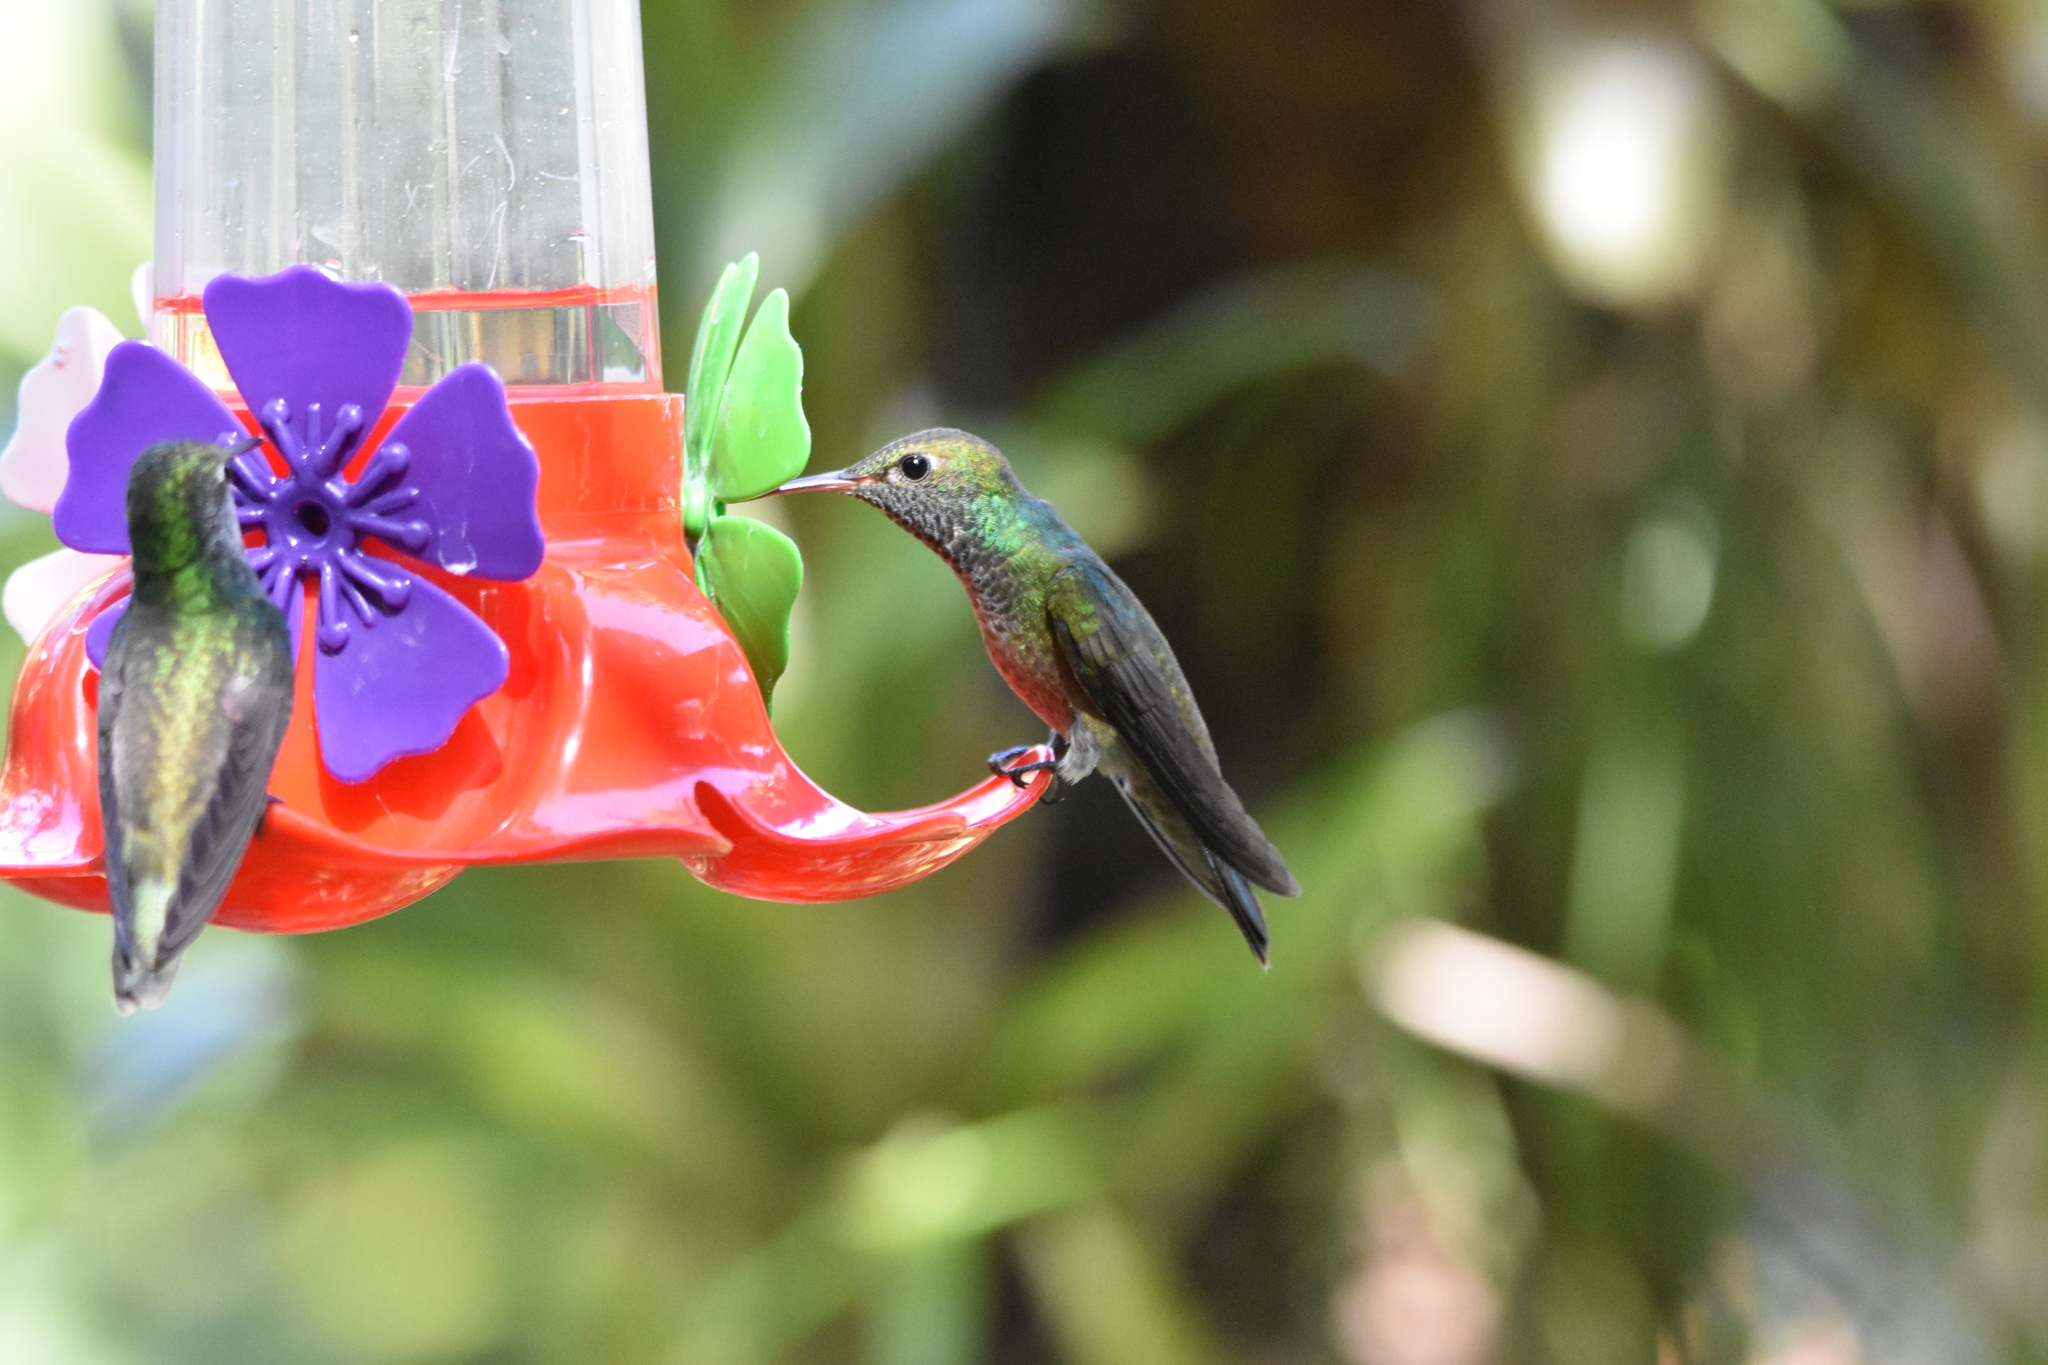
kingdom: Animalia
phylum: Chordata
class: Aves
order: Apodiformes
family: Trochilidae
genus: Chrysuronia
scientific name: Chrysuronia versicolor
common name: Versicolored emerald
